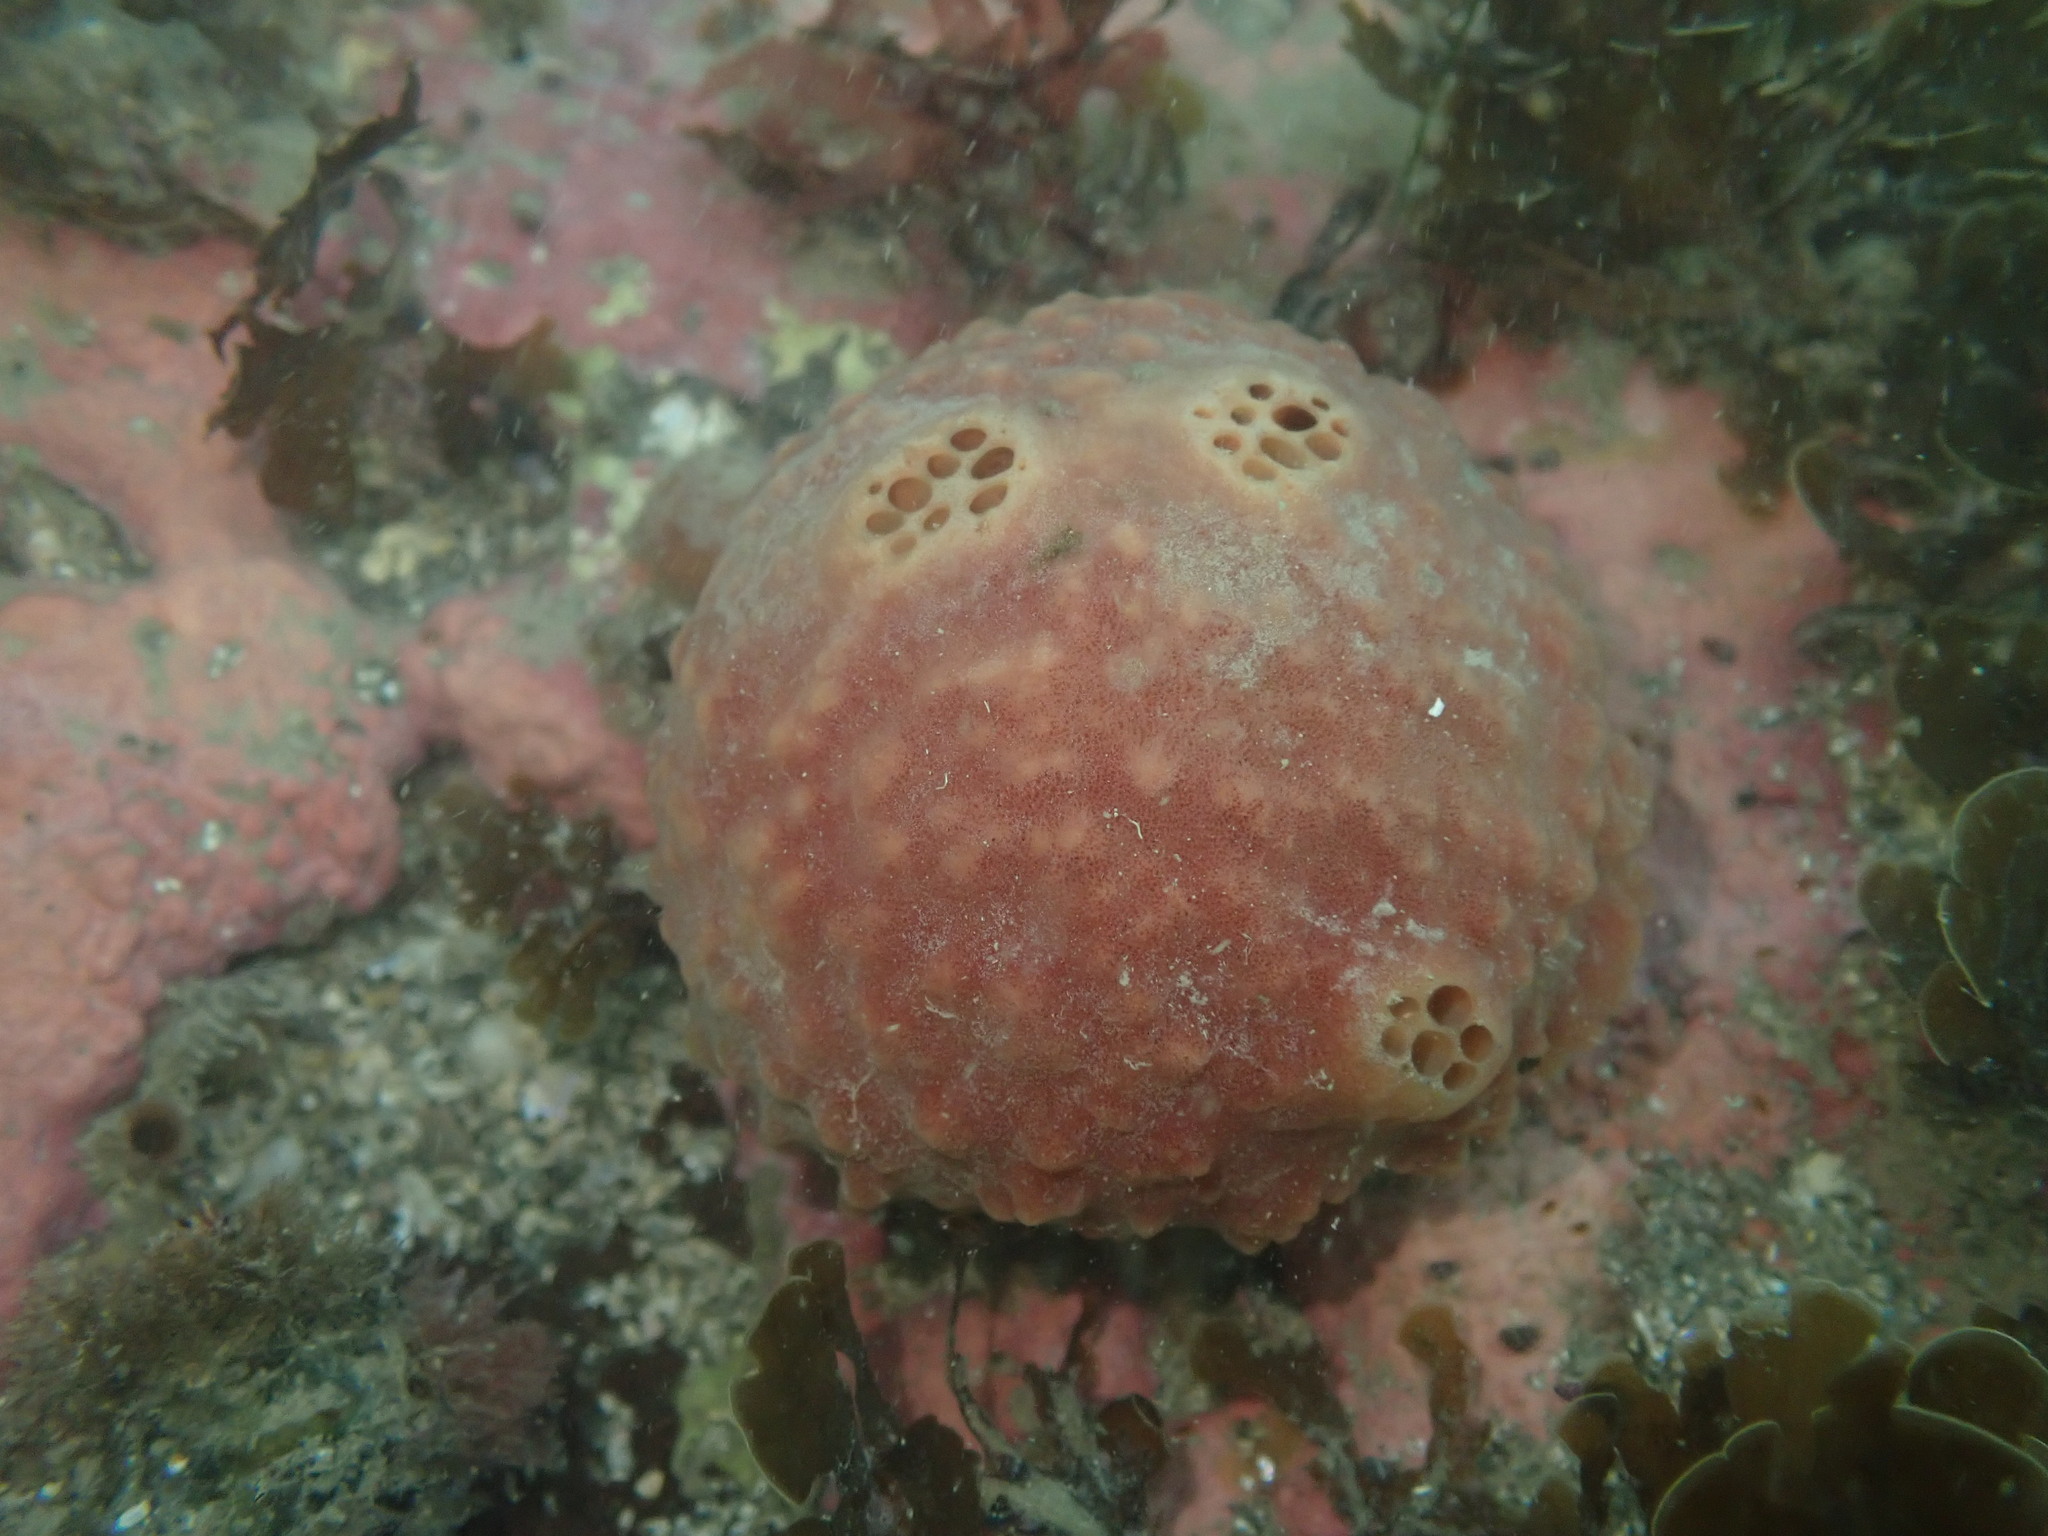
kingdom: Animalia
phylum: Porifera
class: Demospongiae
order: Suberitida
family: Suberitidae
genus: Aaptos
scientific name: Aaptos globosa
